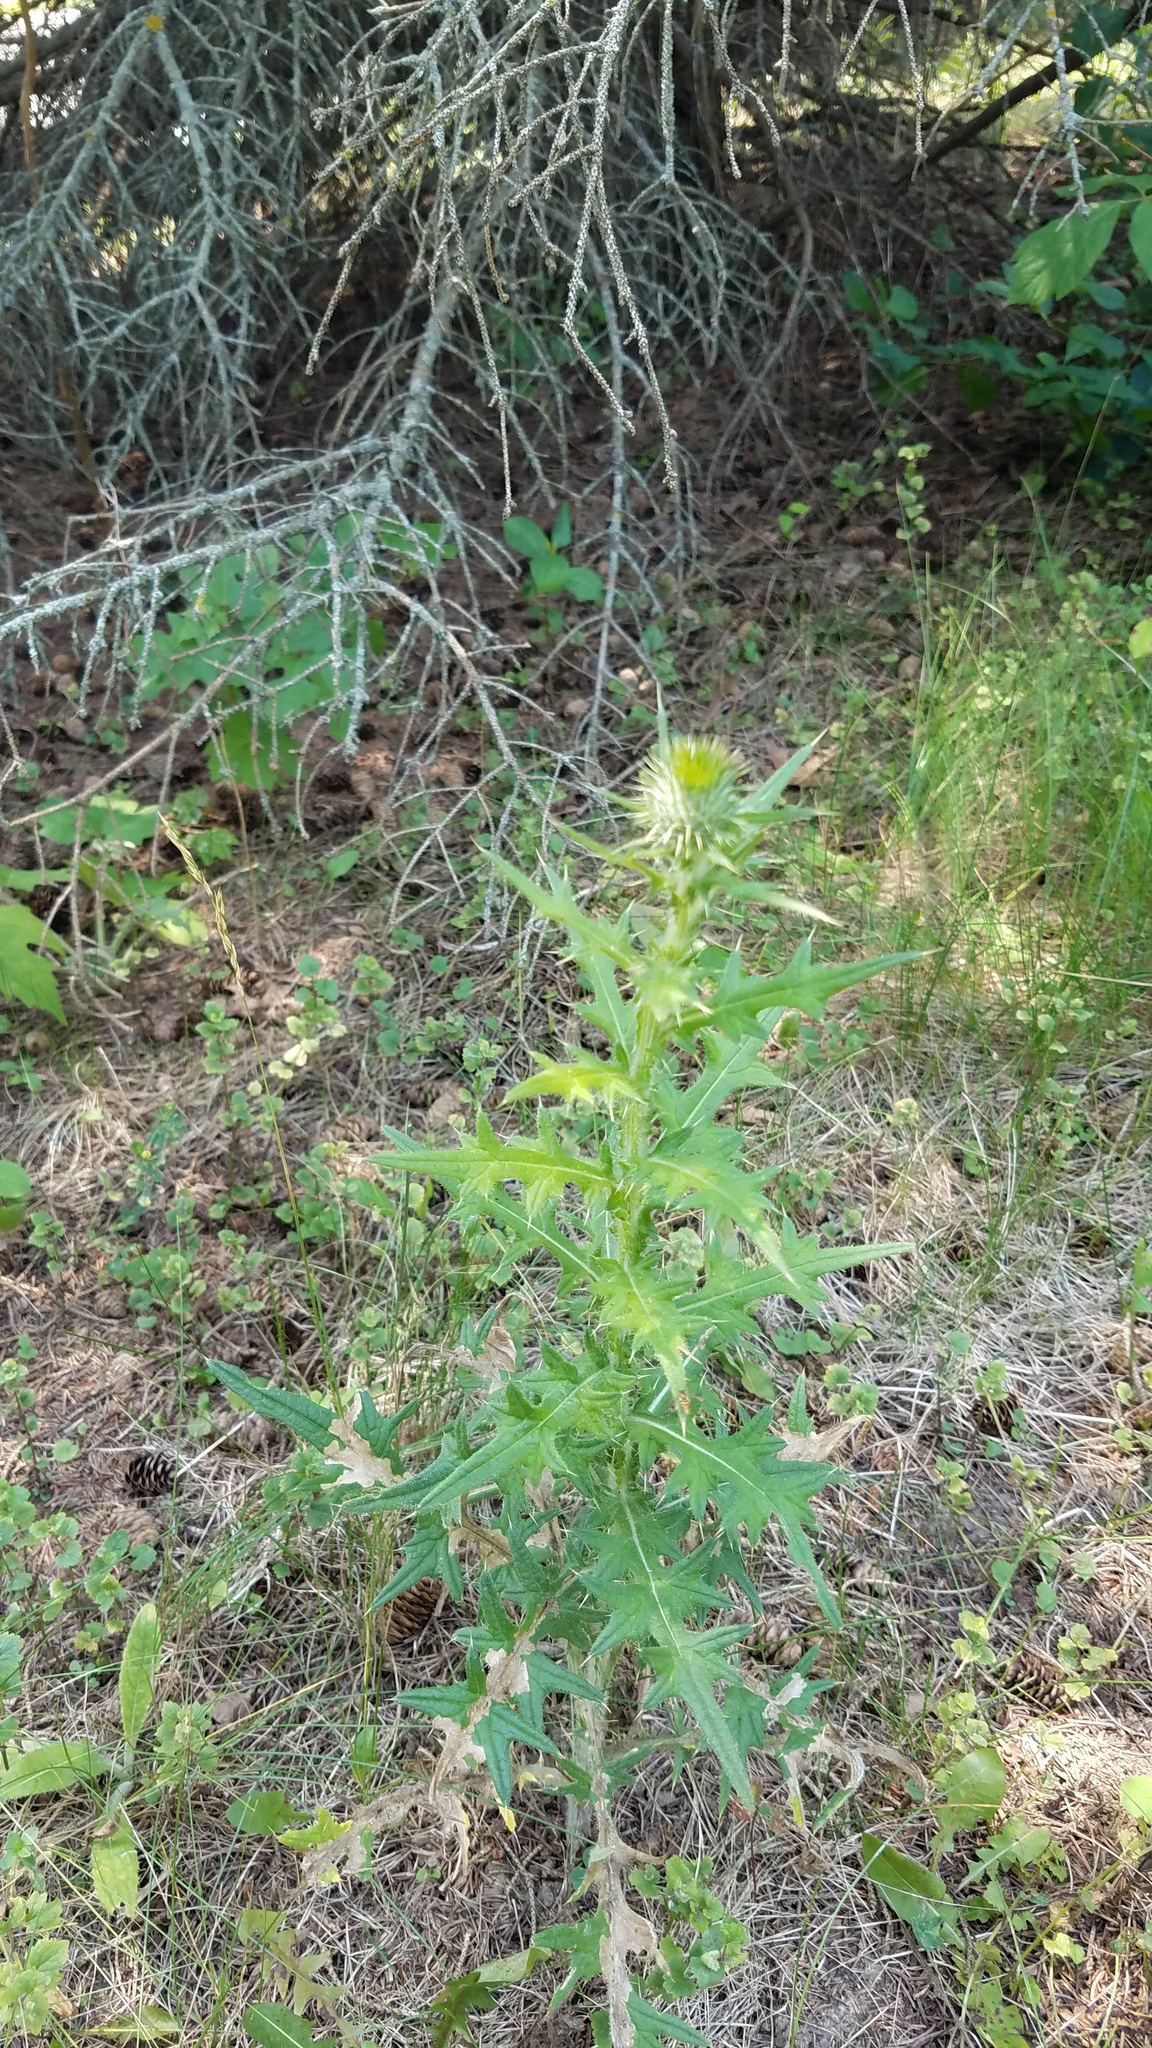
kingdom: Plantae
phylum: Tracheophyta
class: Magnoliopsida
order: Asterales
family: Asteraceae
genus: Cirsium
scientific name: Cirsium vulgare
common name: Bull thistle
